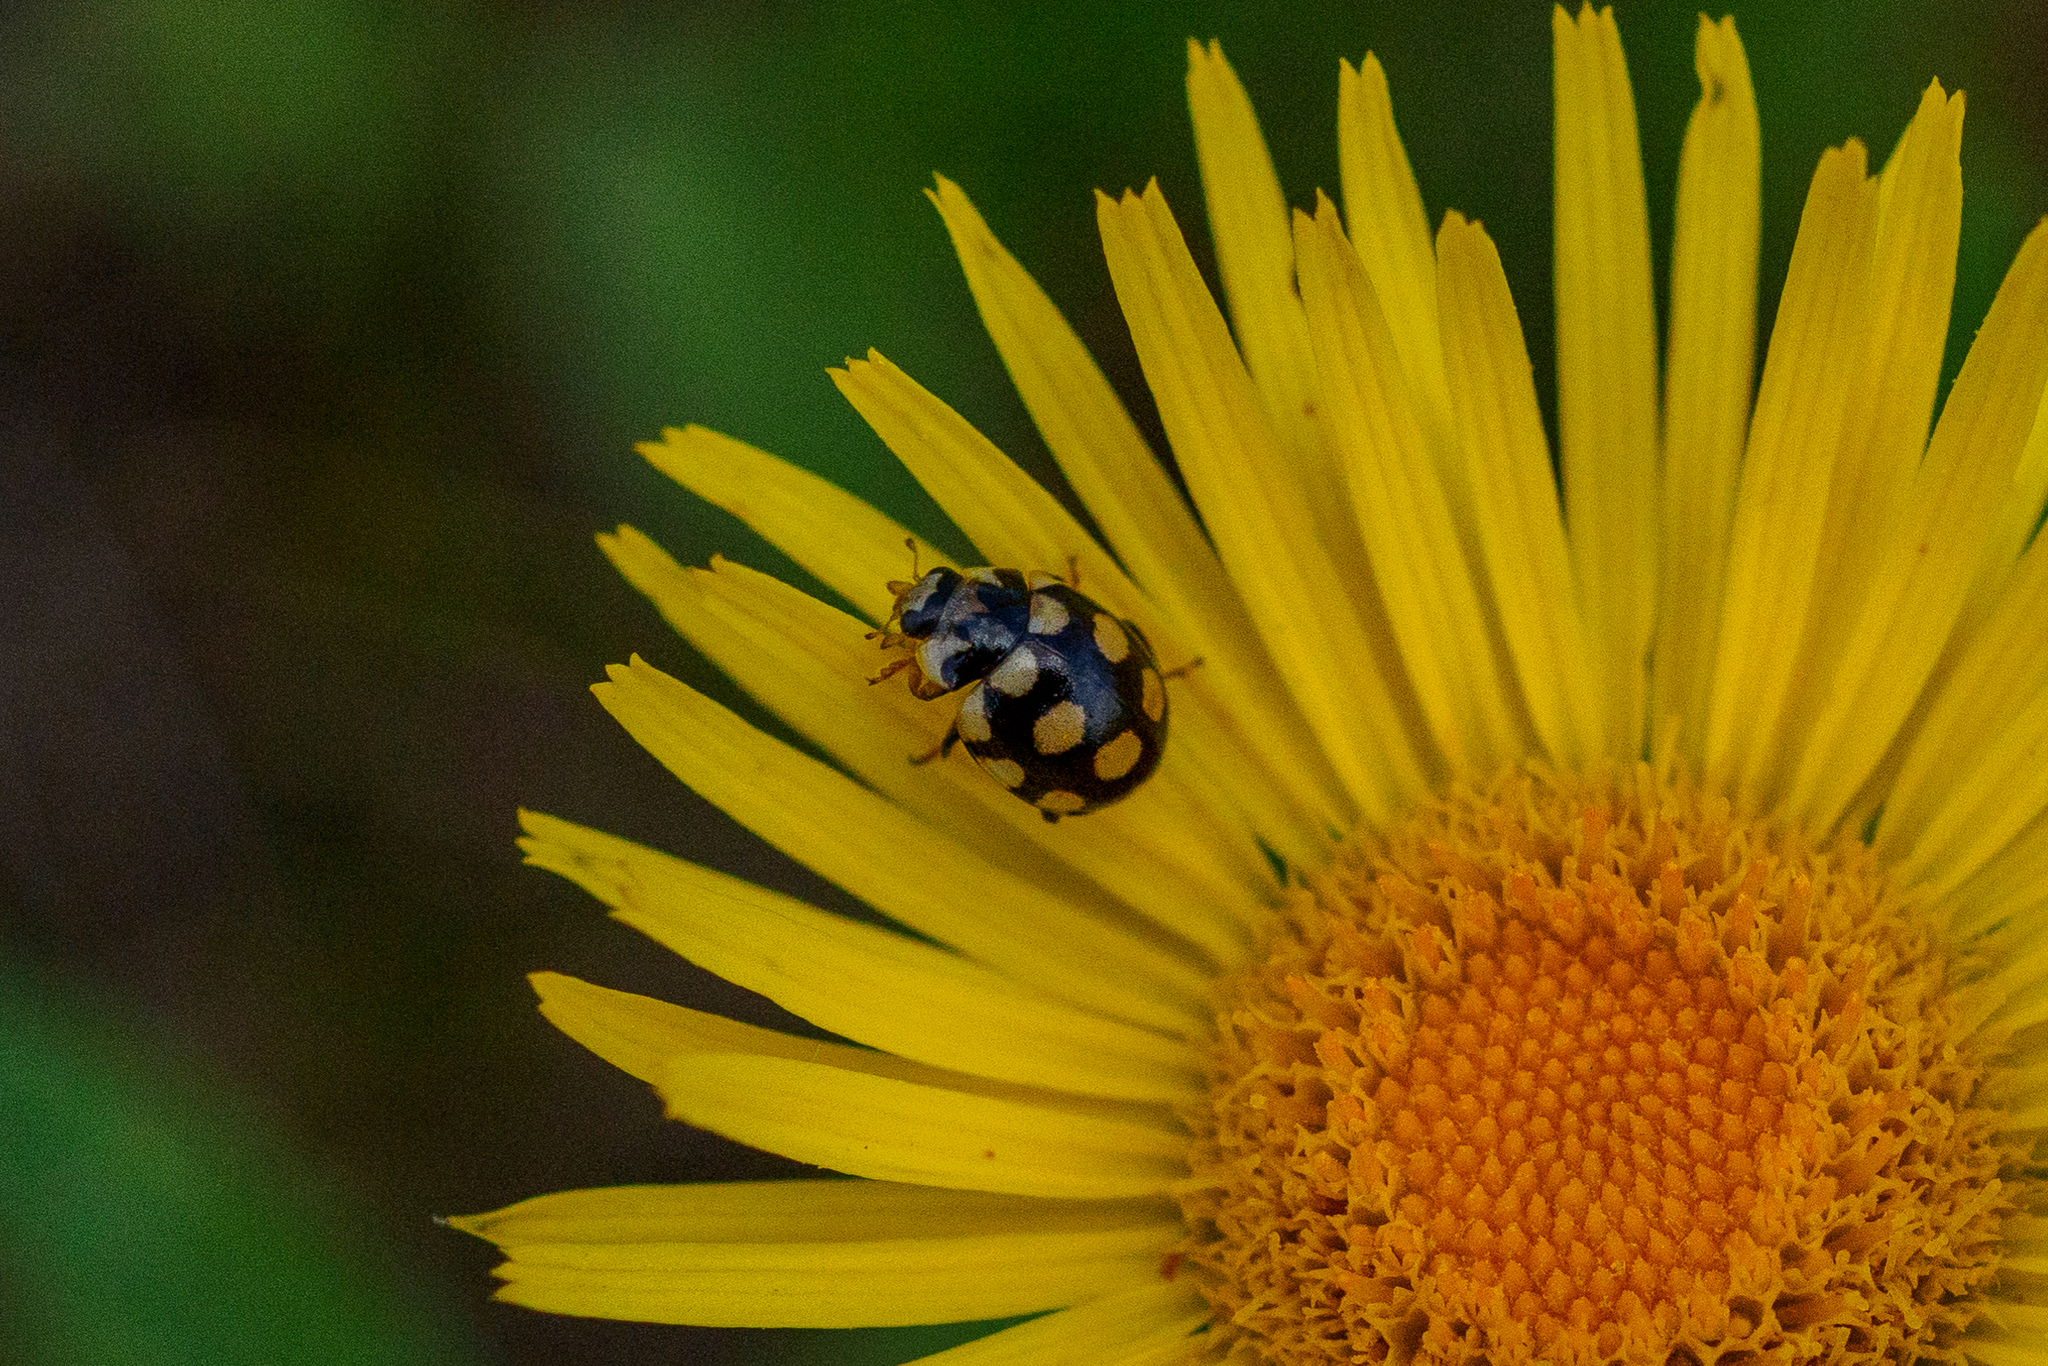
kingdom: Animalia
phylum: Arthropoda
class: Insecta
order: Coleoptera
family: Coccinellidae
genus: Coccinula
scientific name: Coccinula quatuordecimpustulata
